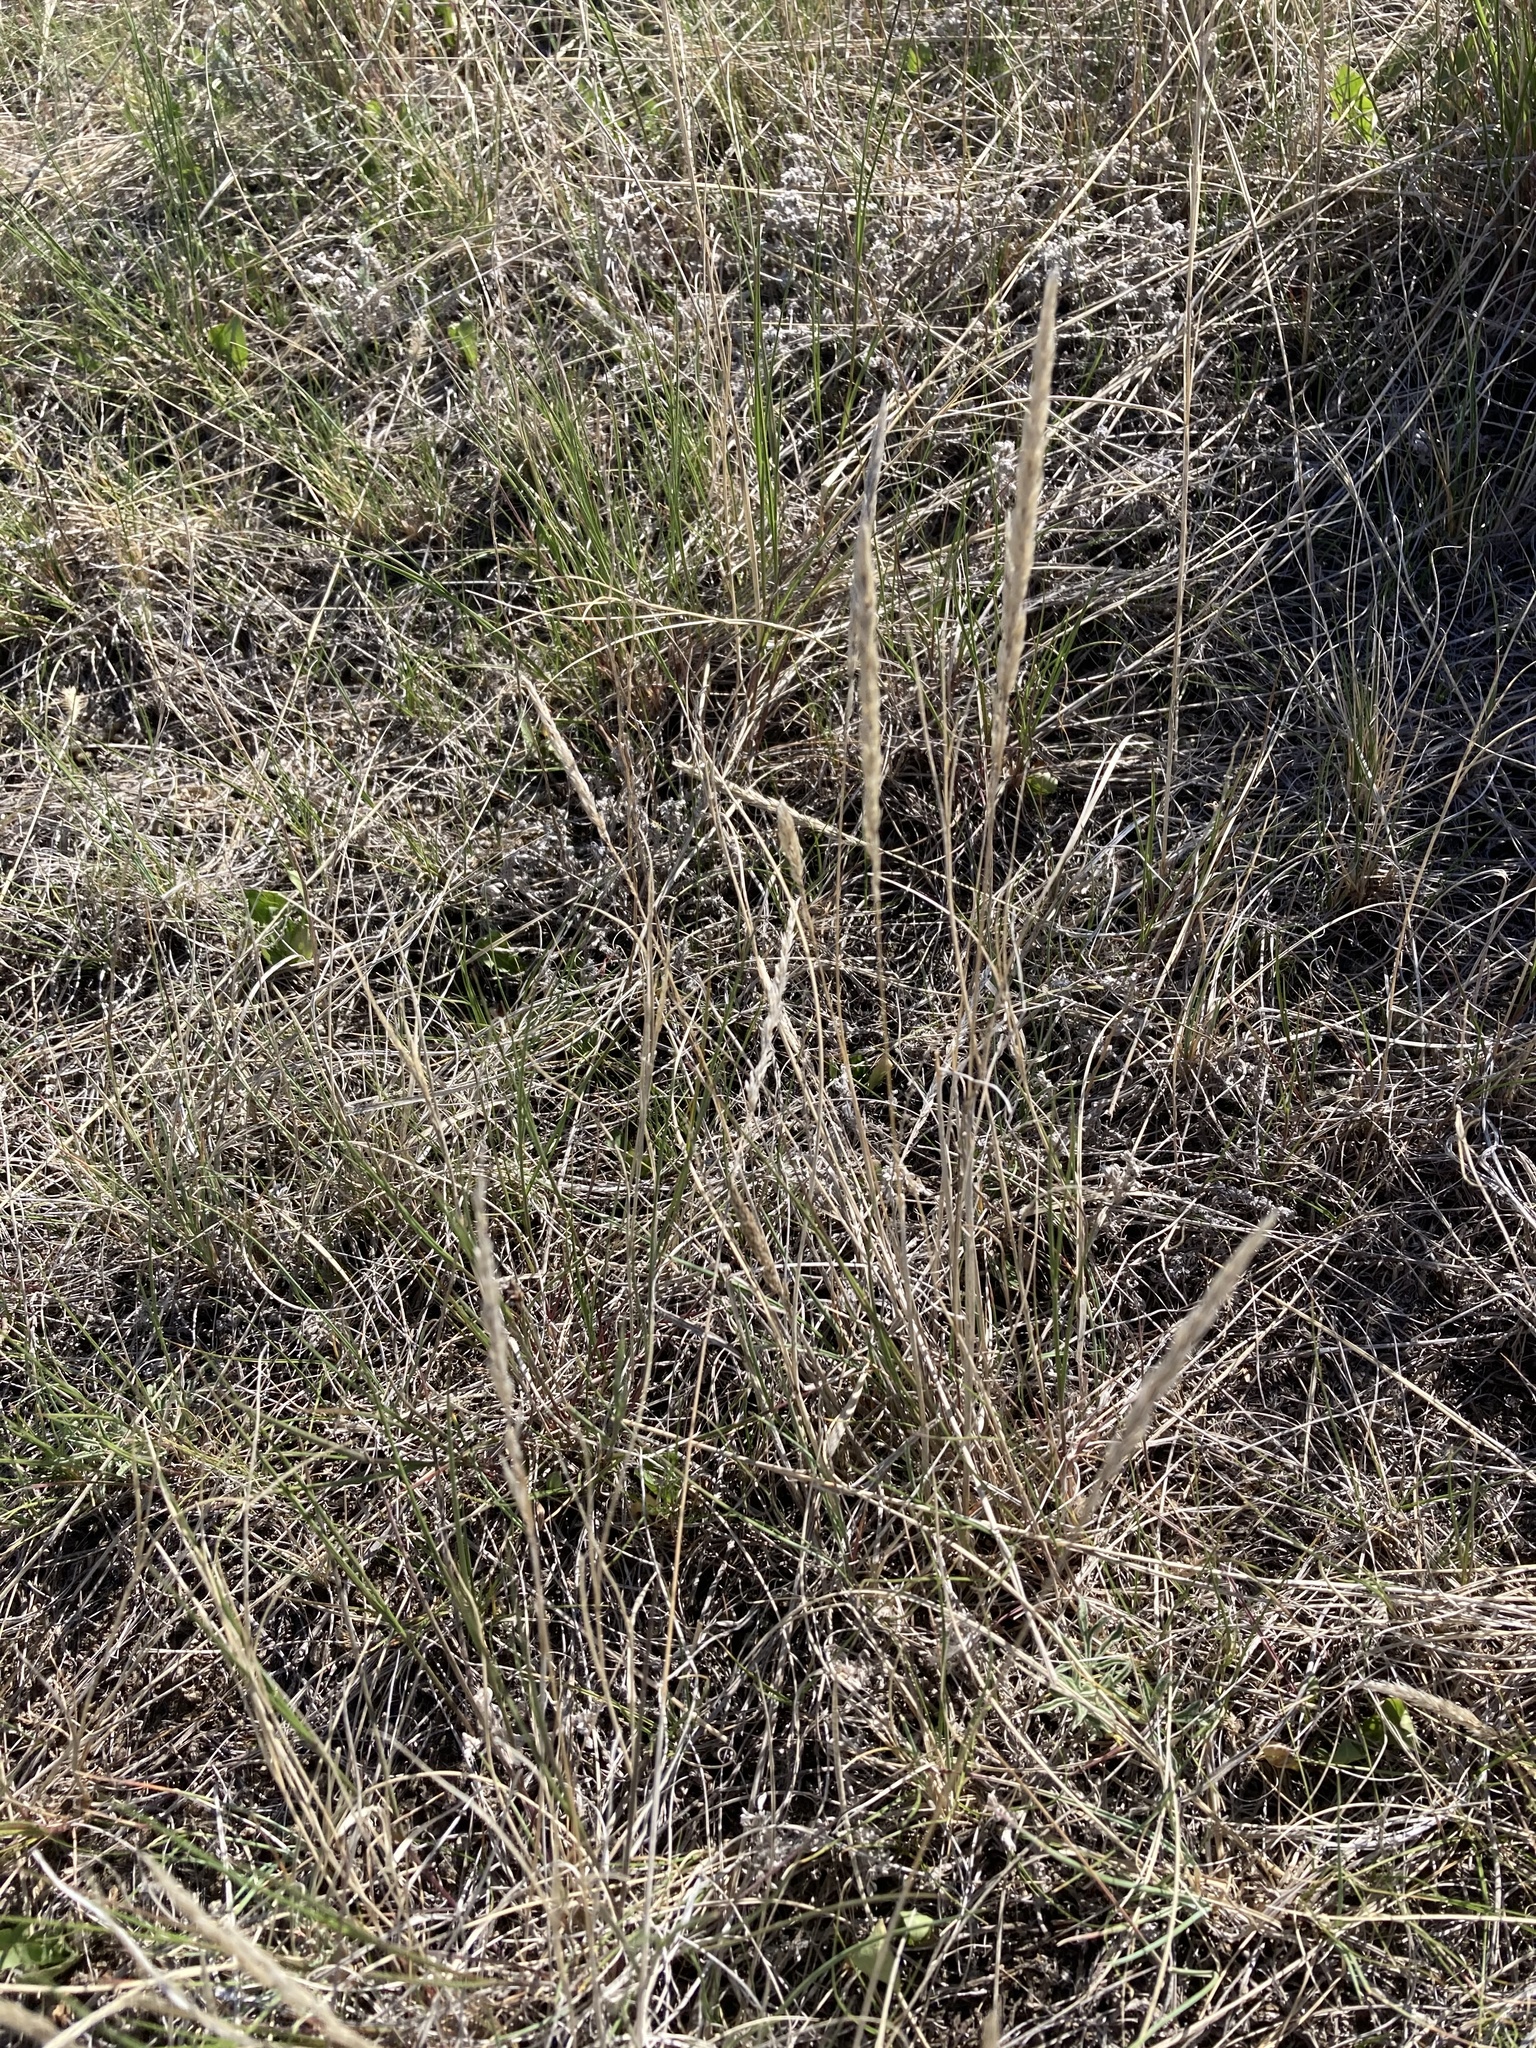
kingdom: Plantae
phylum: Tracheophyta
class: Liliopsida
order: Poales
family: Poaceae
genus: Koeleria
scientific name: Koeleria macrantha
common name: Crested hair-grass
